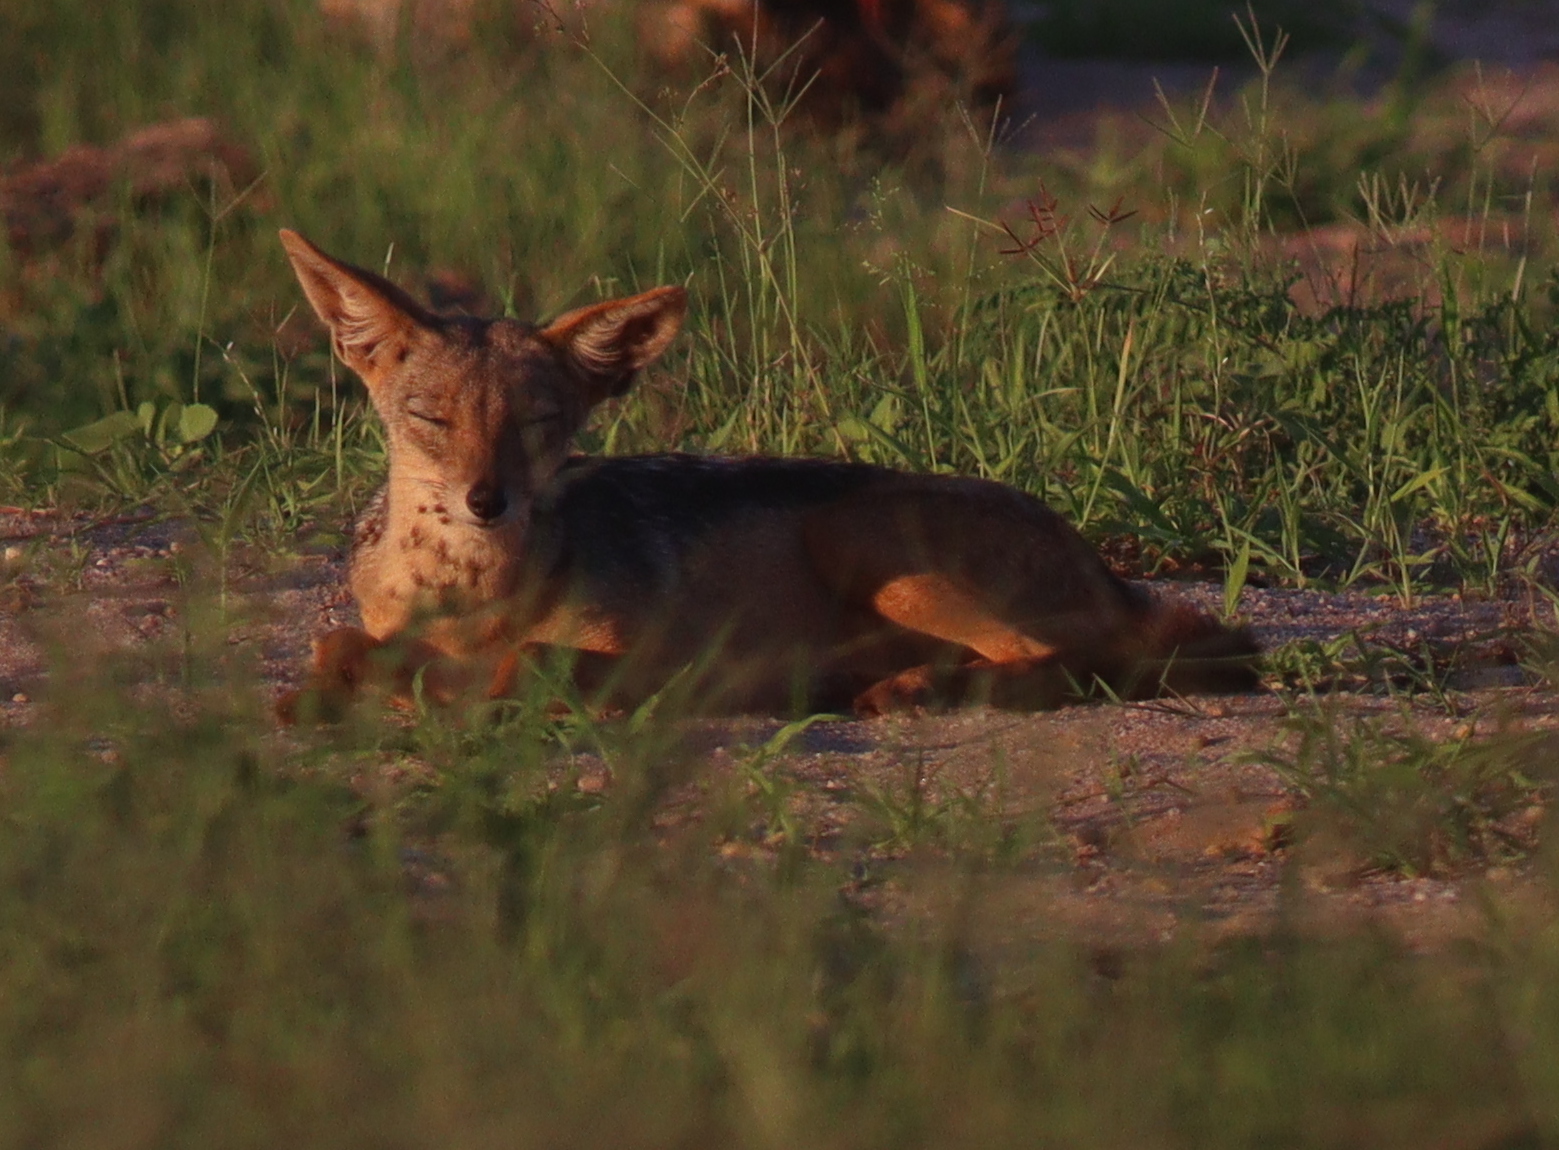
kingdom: Animalia
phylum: Chordata
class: Mammalia
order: Carnivora
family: Canidae
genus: Lupulella
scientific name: Lupulella
